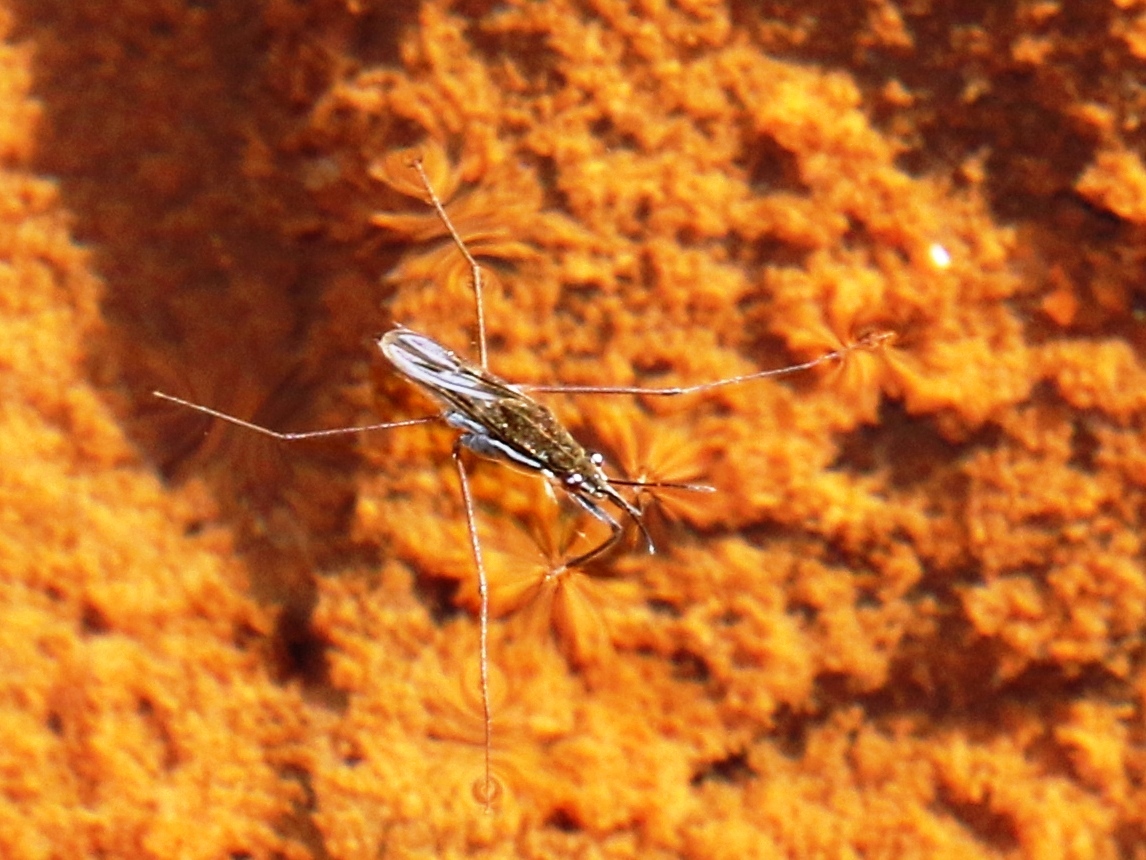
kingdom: Animalia
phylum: Arthropoda
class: Insecta
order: Hemiptera
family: Gerridae
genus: Gerris
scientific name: Gerris
